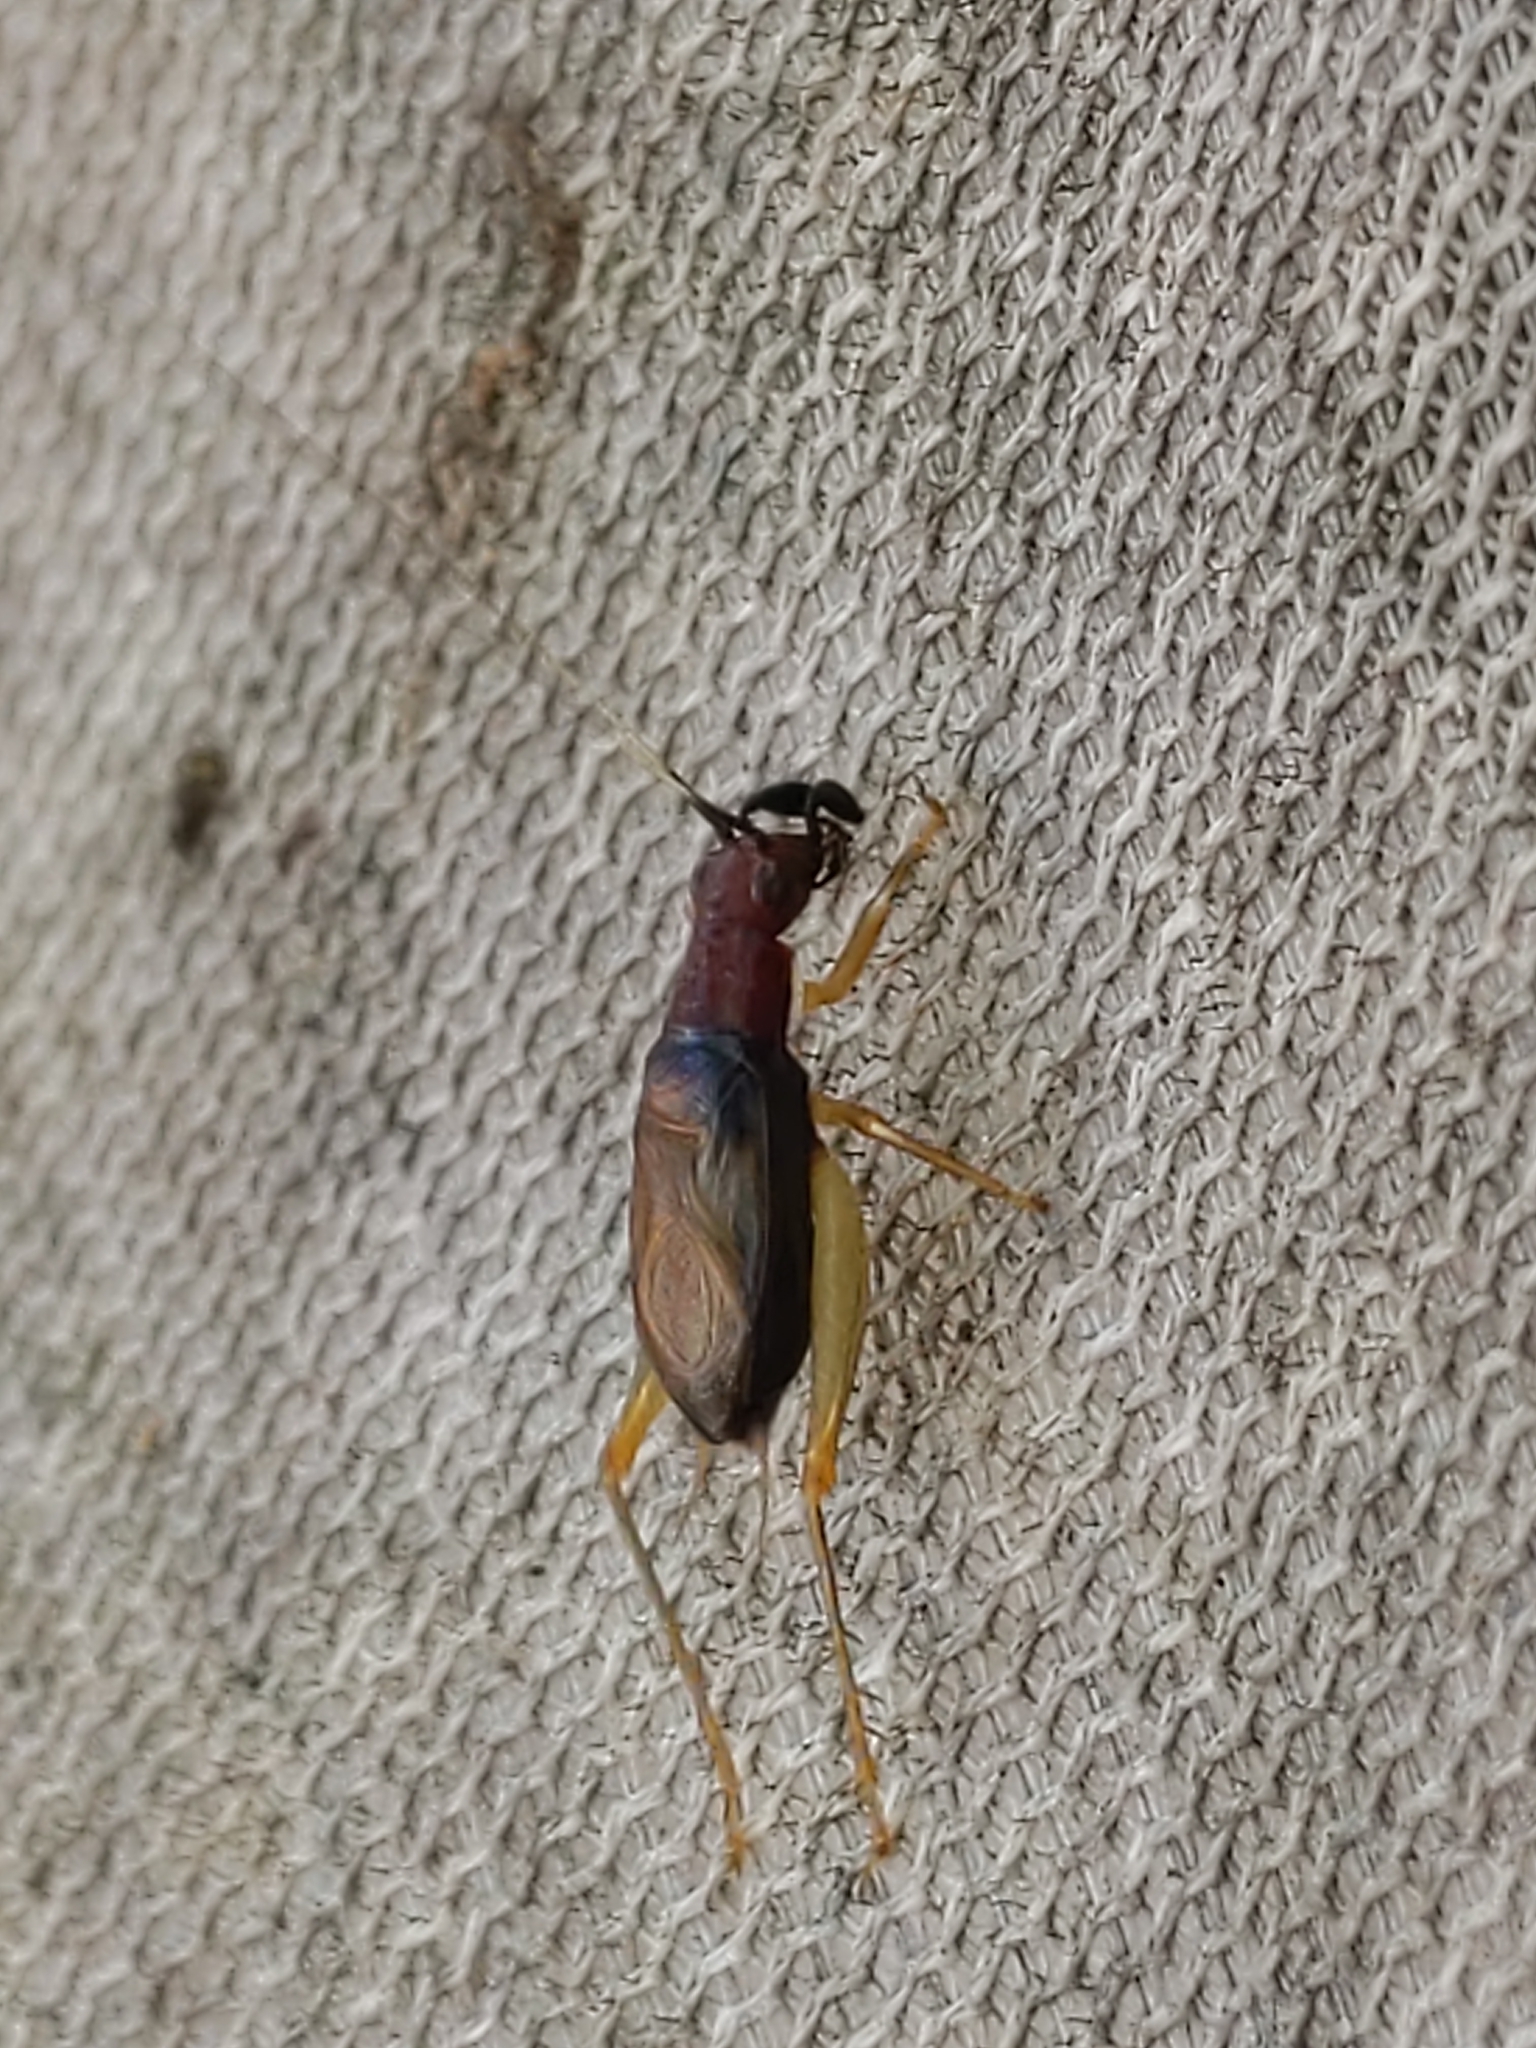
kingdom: Animalia
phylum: Arthropoda
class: Insecta
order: Orthoptera
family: Trigonidiidae
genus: Phyllopalpus
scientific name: Phyllopalpus pulchellus
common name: Handsome trig
